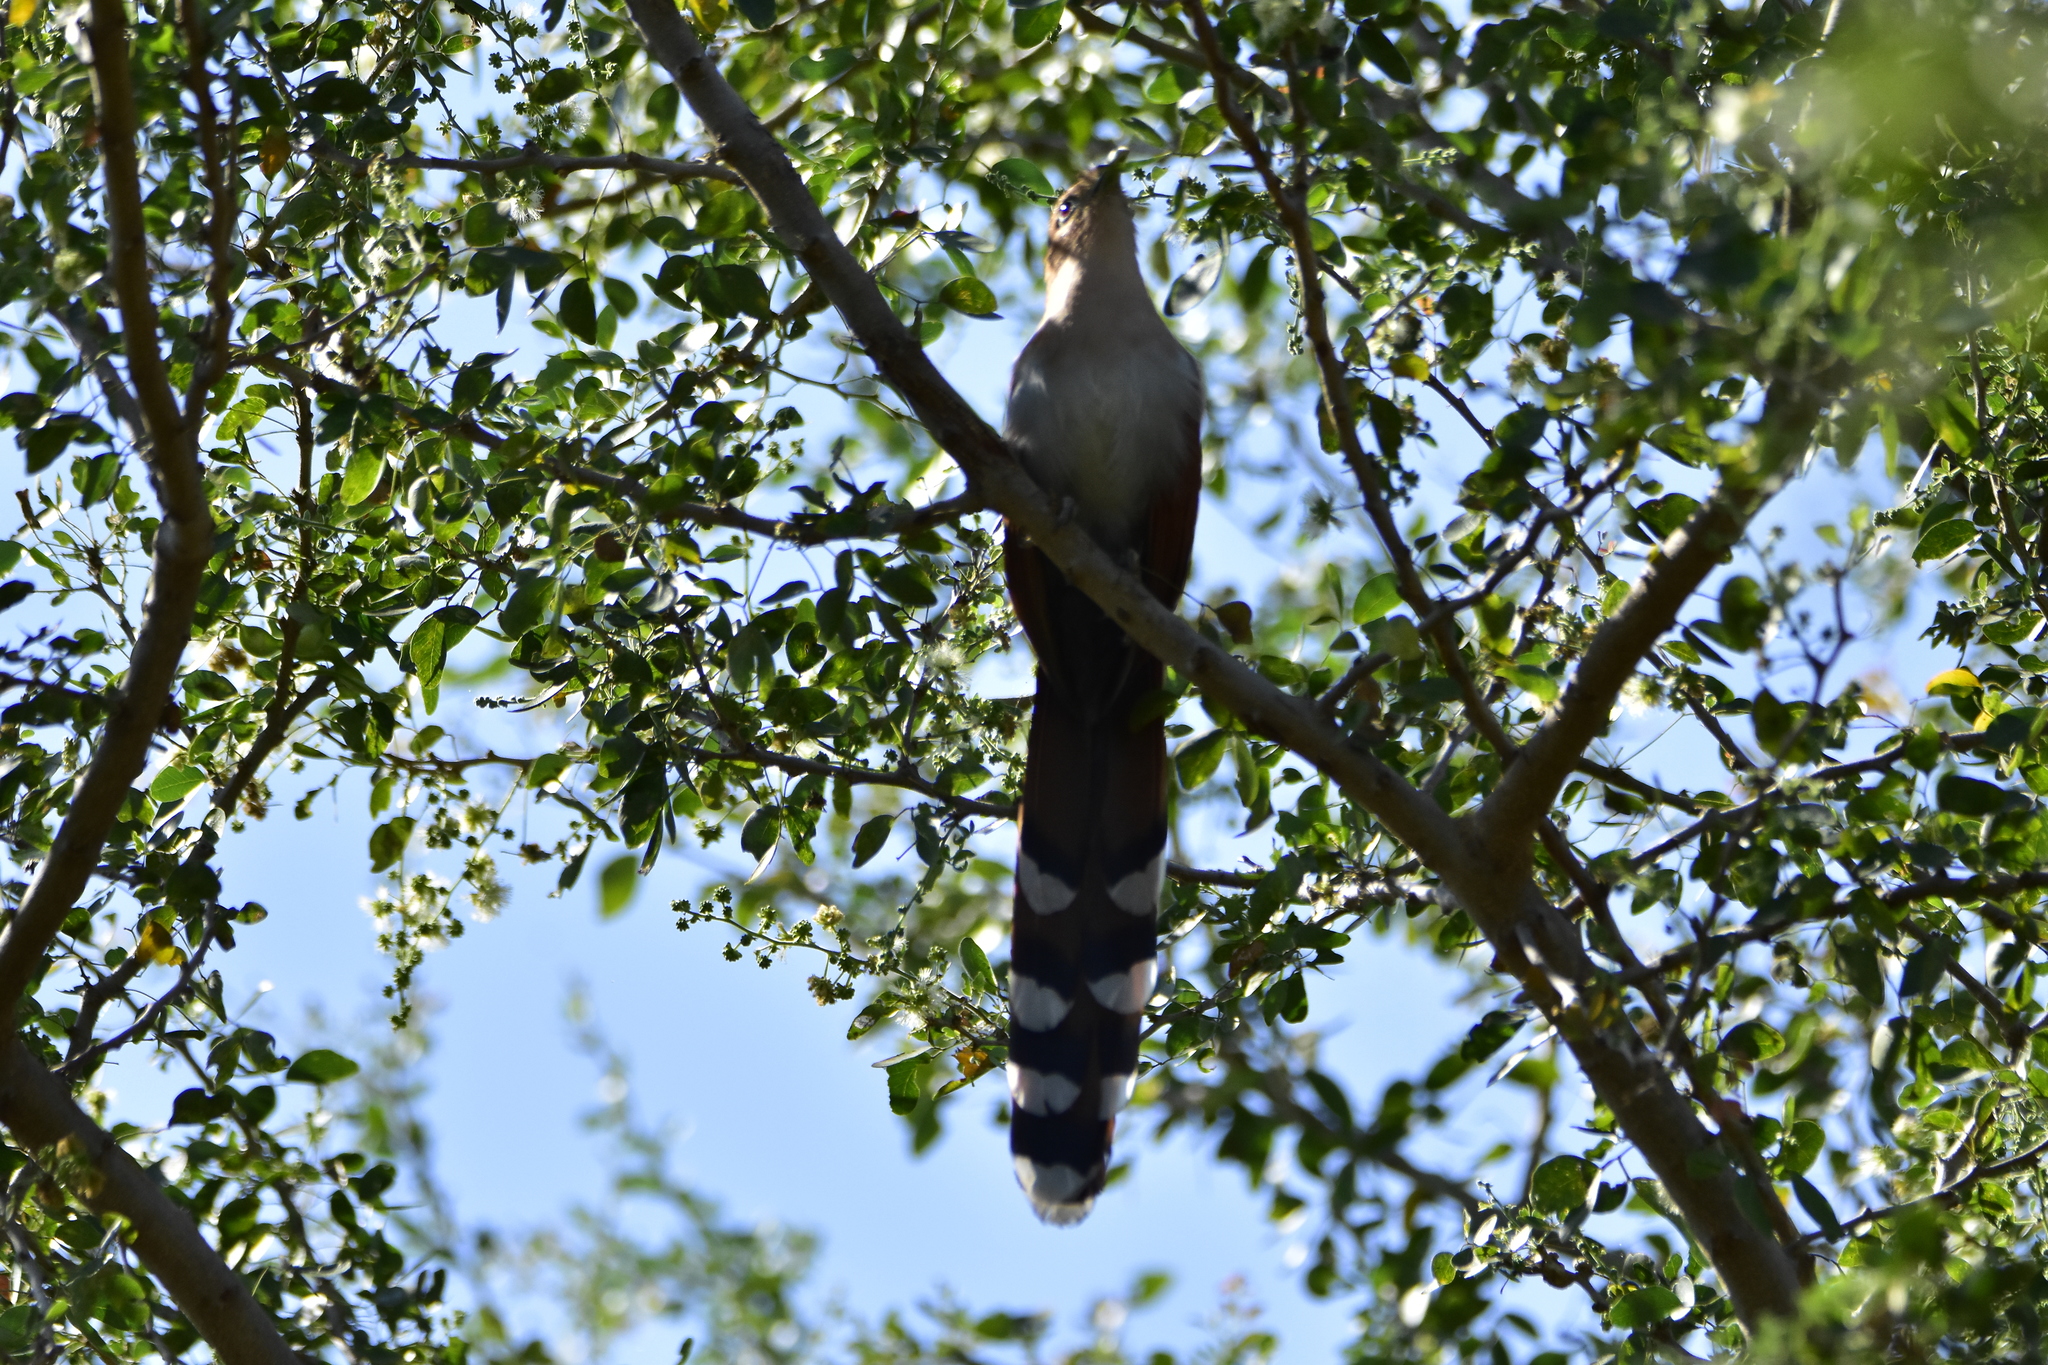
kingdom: Animalia
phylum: Chordata
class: Aves
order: Cuculiformes
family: Cuculidae
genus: Piaya
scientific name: Piaya cayana
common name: Squirrel cuckoo
